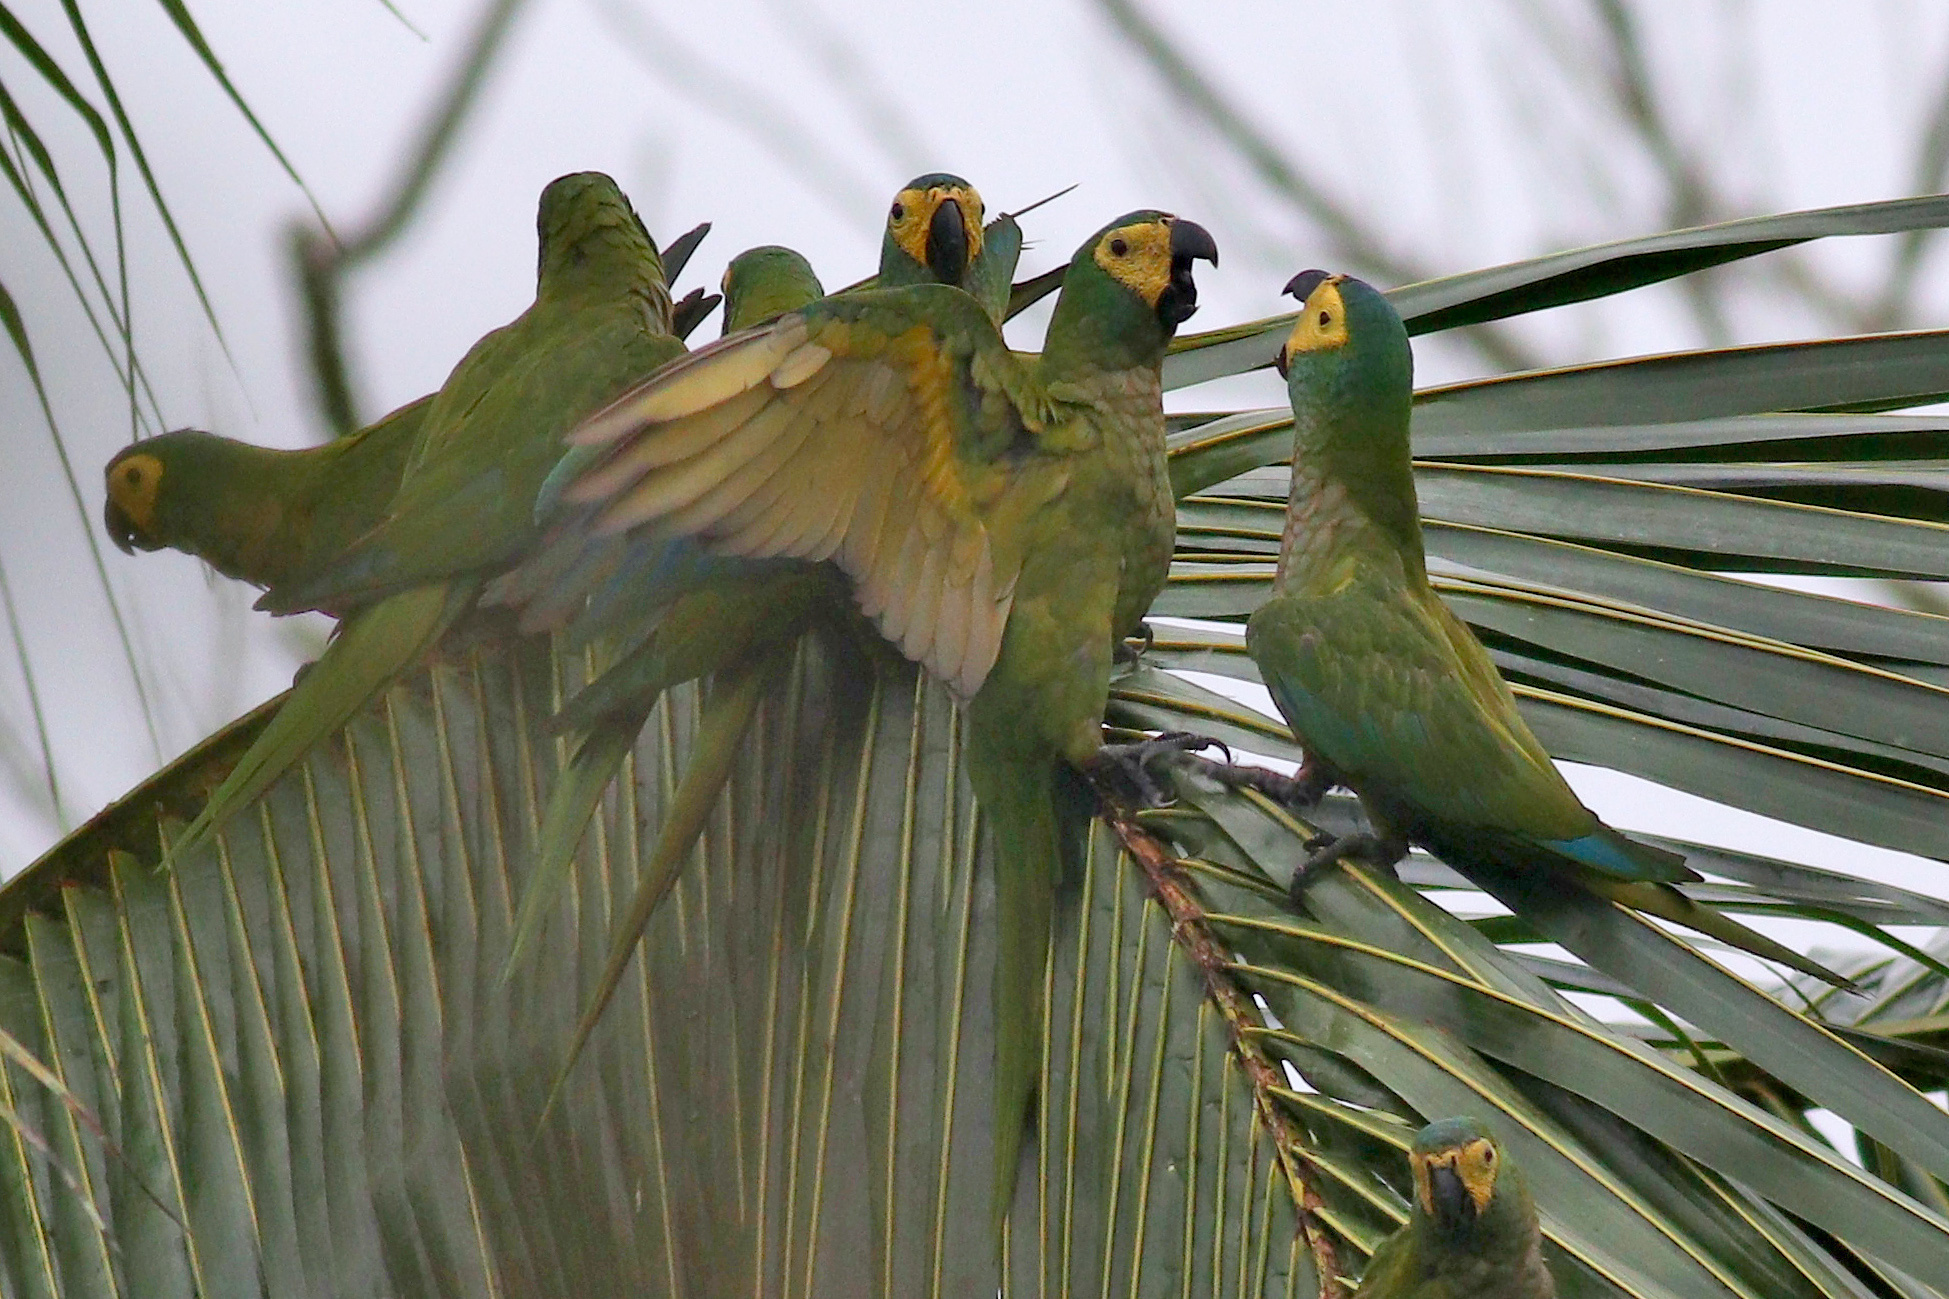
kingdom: Animalia
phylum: Chordata
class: Aves
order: Psittaciformes
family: Psittacidae
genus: Orthopsittaca
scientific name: Orthopsittaca manilata
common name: Red-bellied macaw
